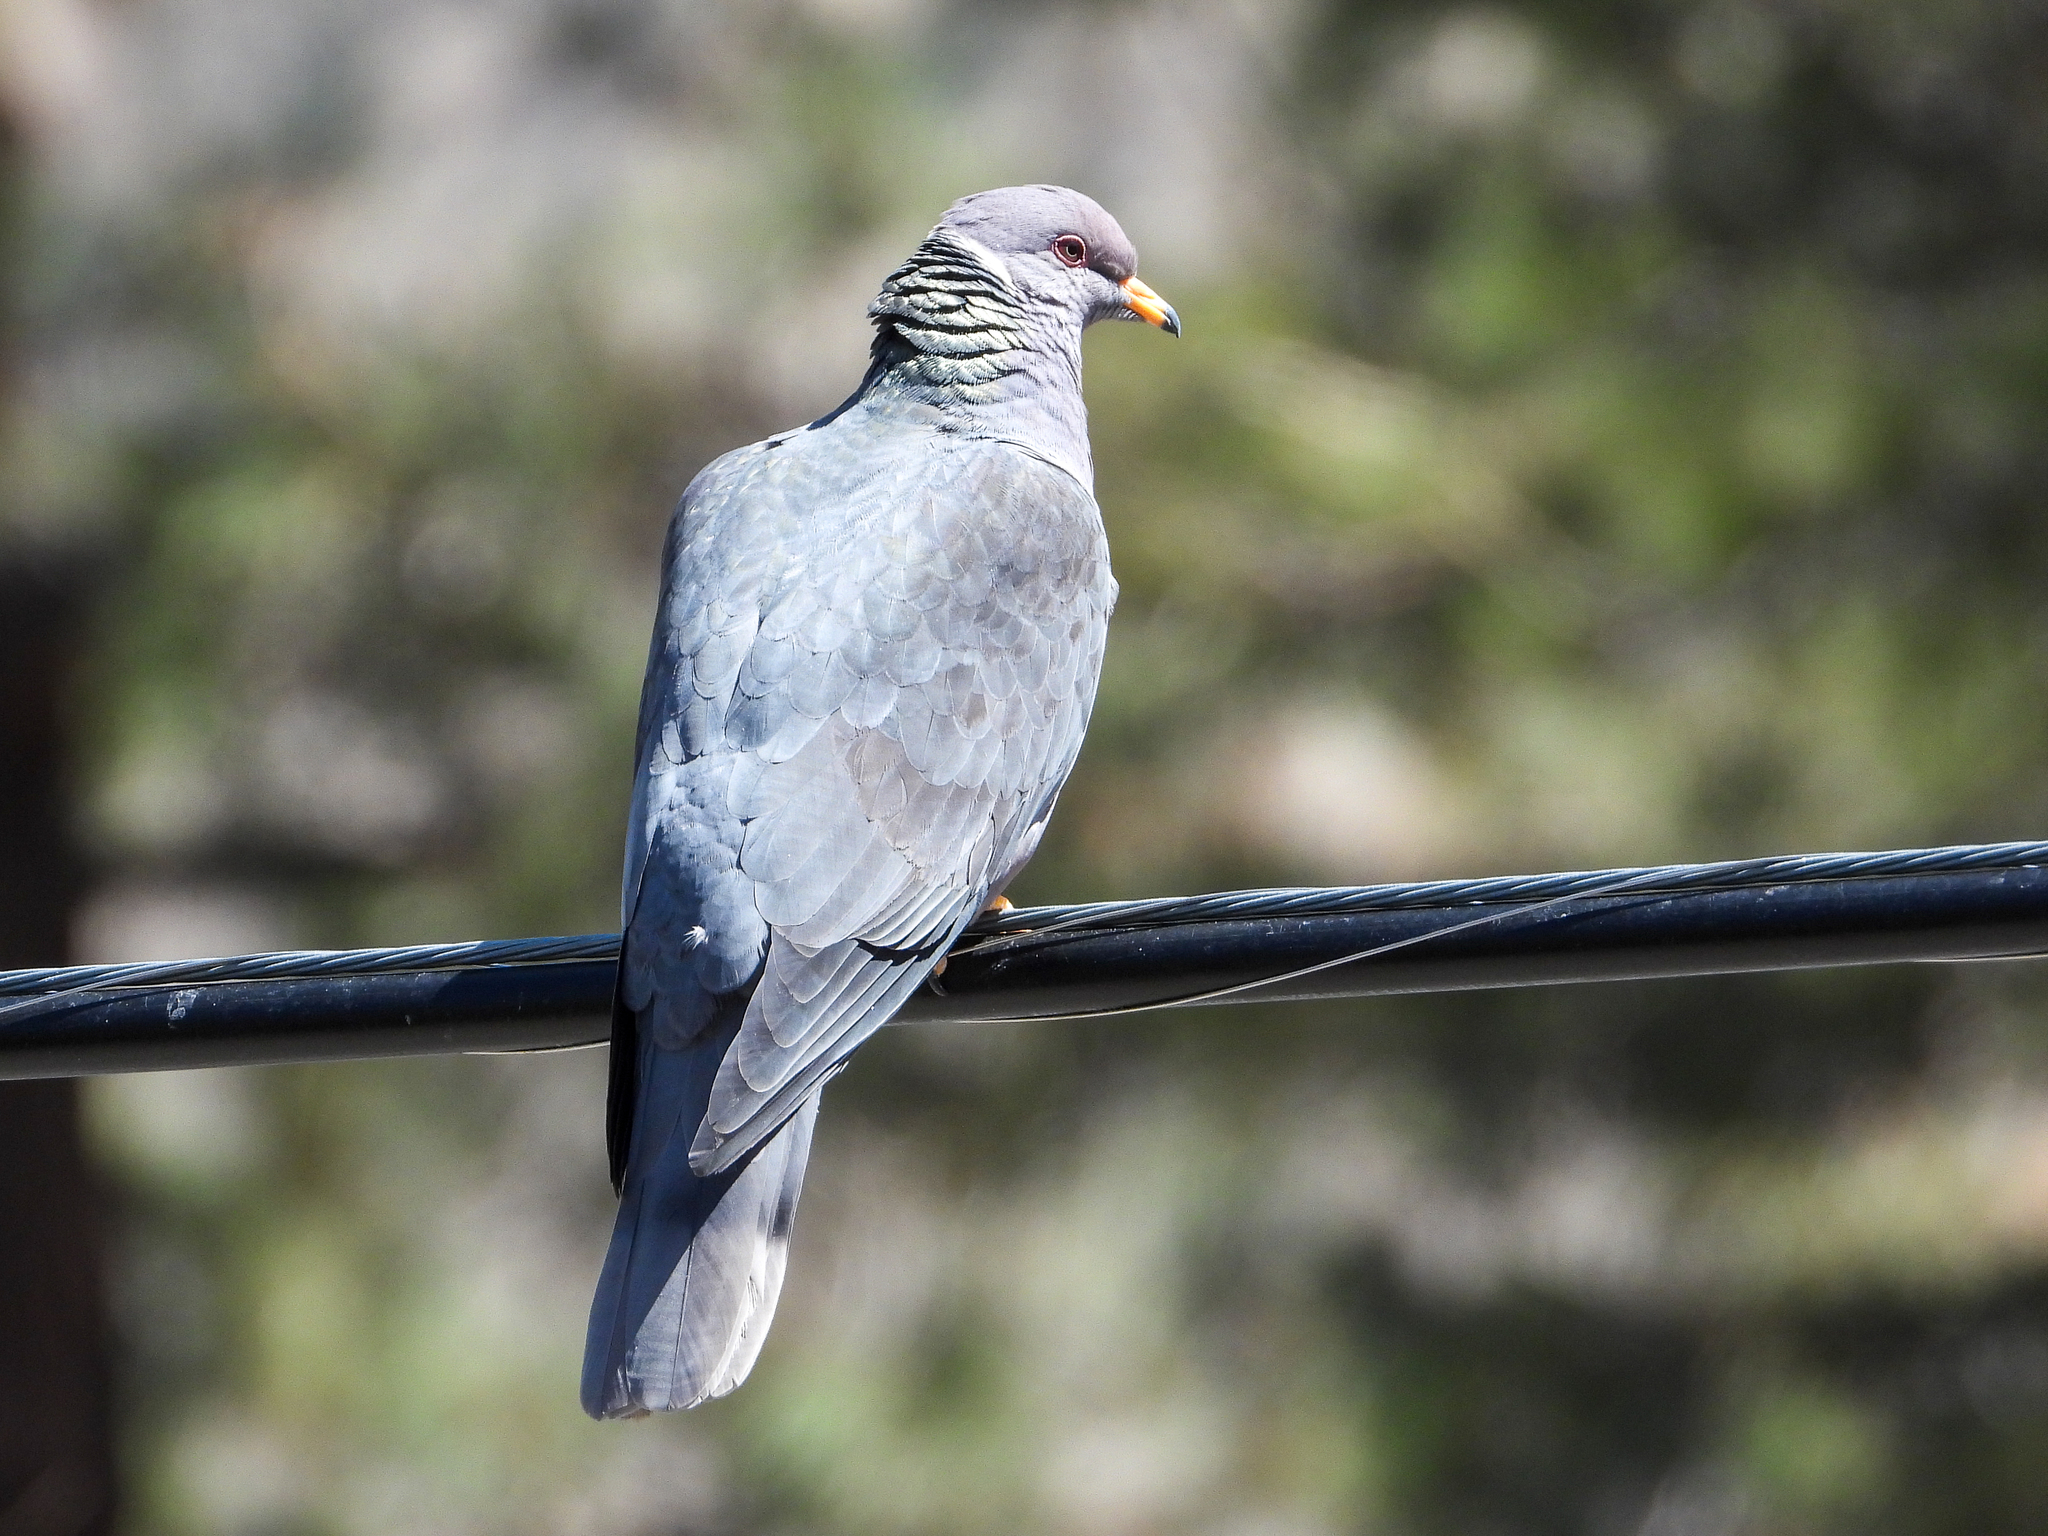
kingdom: Animalia
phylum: Chordata
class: Aves
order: Columbiformes
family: Columbidae
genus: Patagioenas
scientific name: Patagioenas fasciata
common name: Band-tailed pigeon
